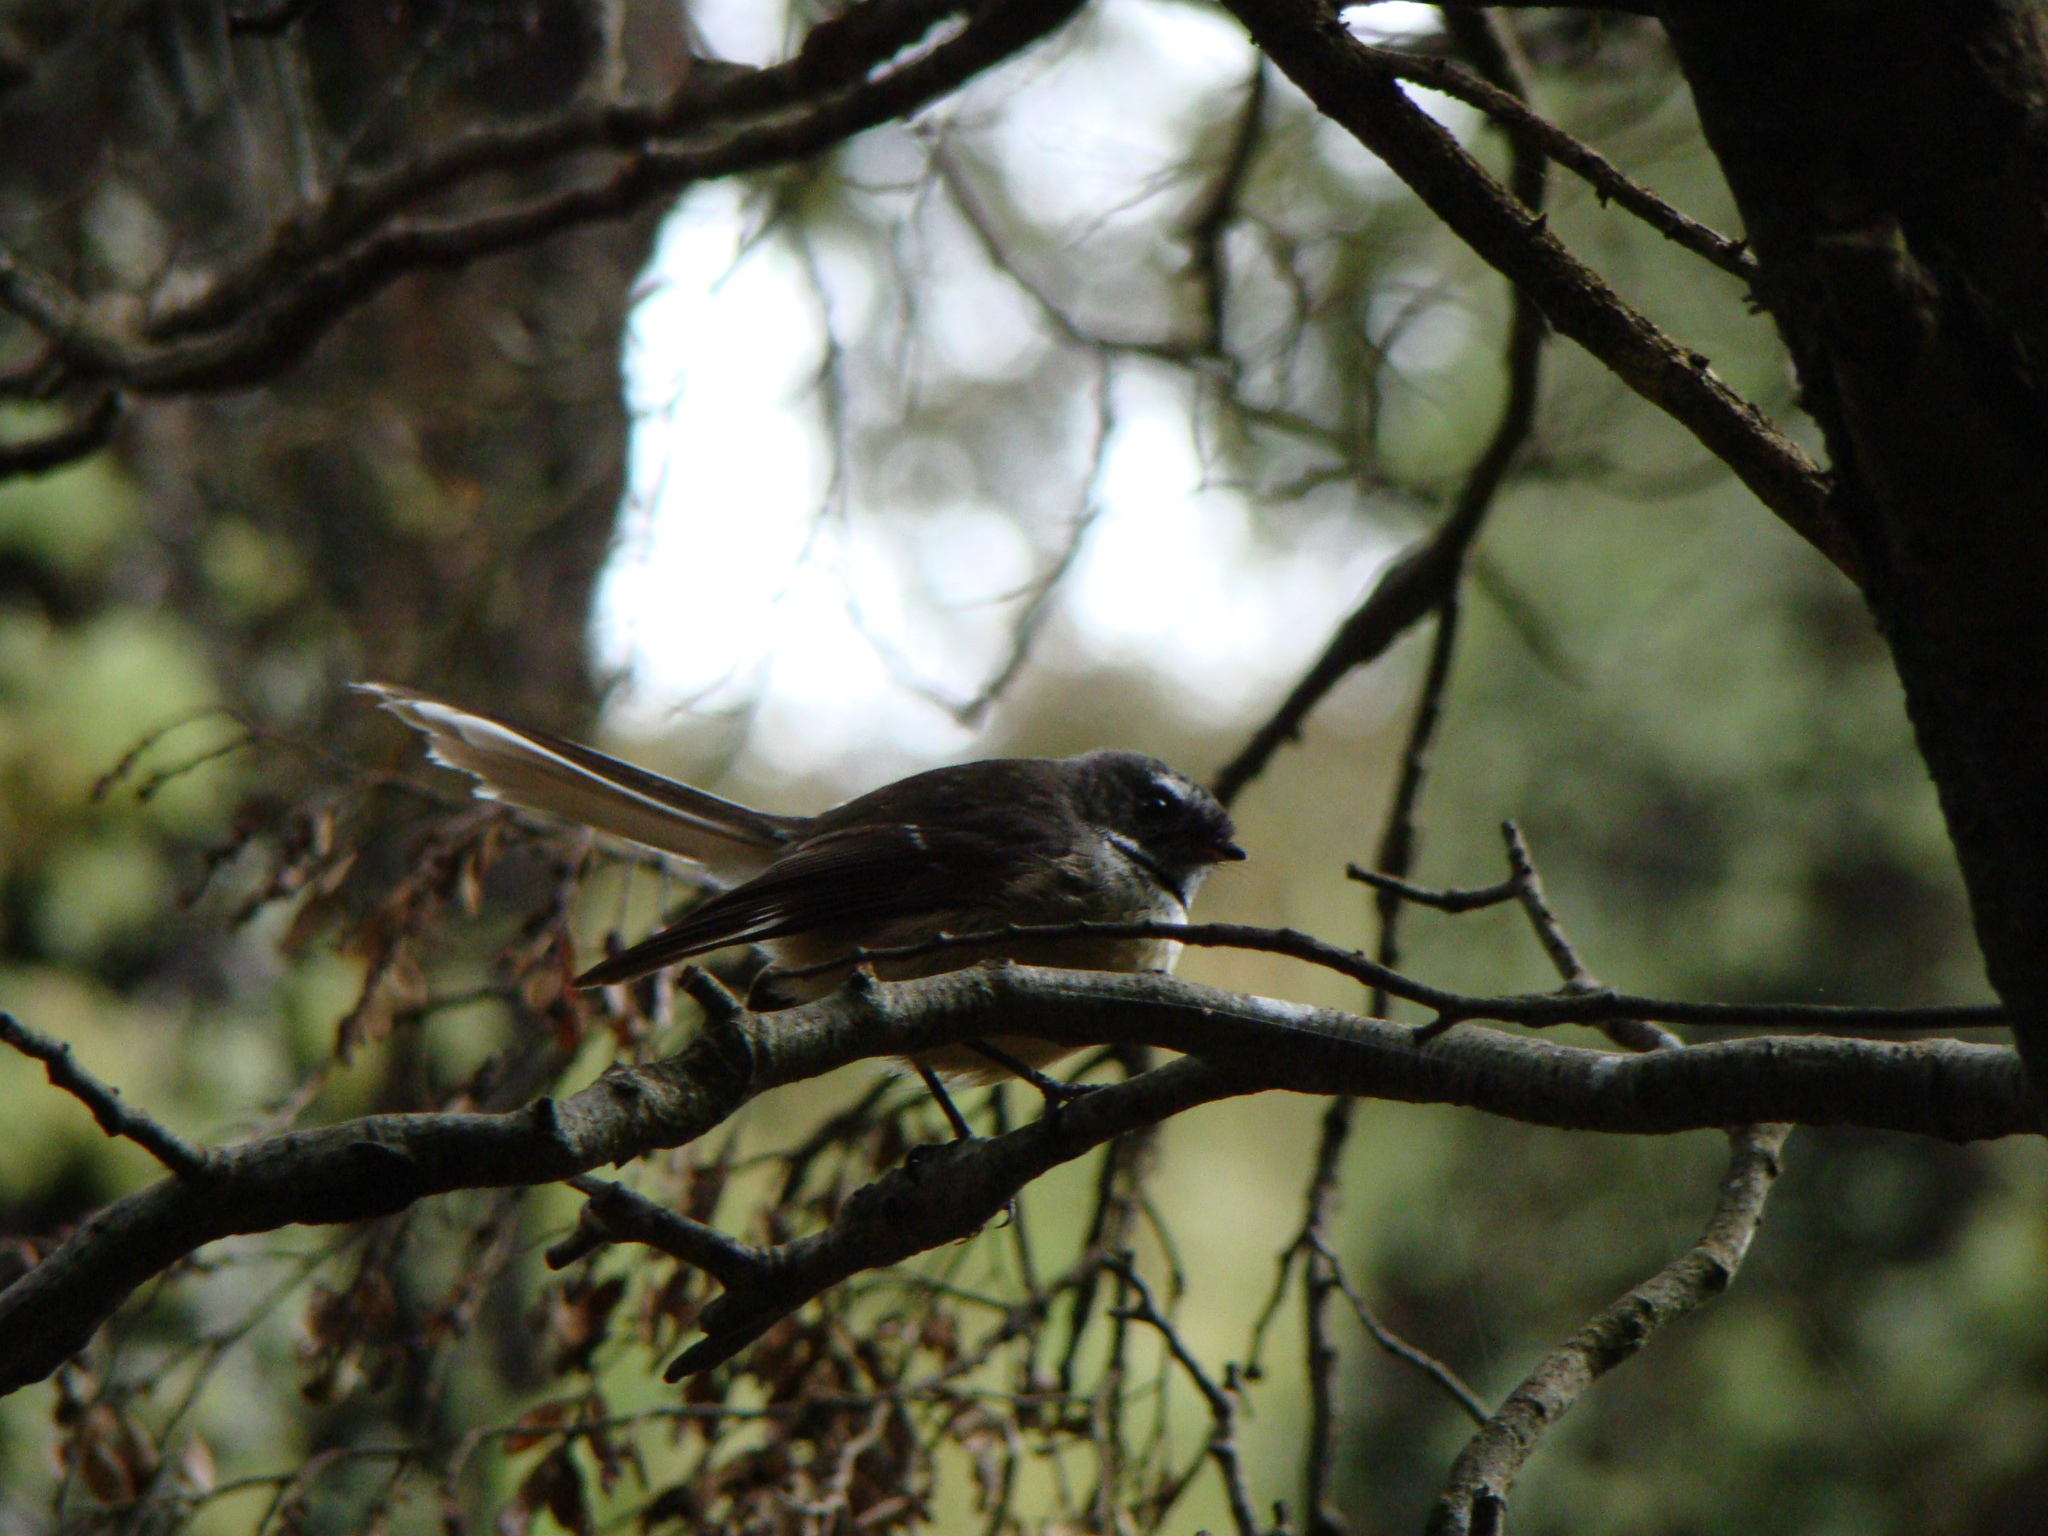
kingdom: Animalia
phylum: Chordata
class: Aves
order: Passeriformes
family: Rhipiduridae
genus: Rhipidura
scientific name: Rhipidura fuliginosa
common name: New zealand fantail
